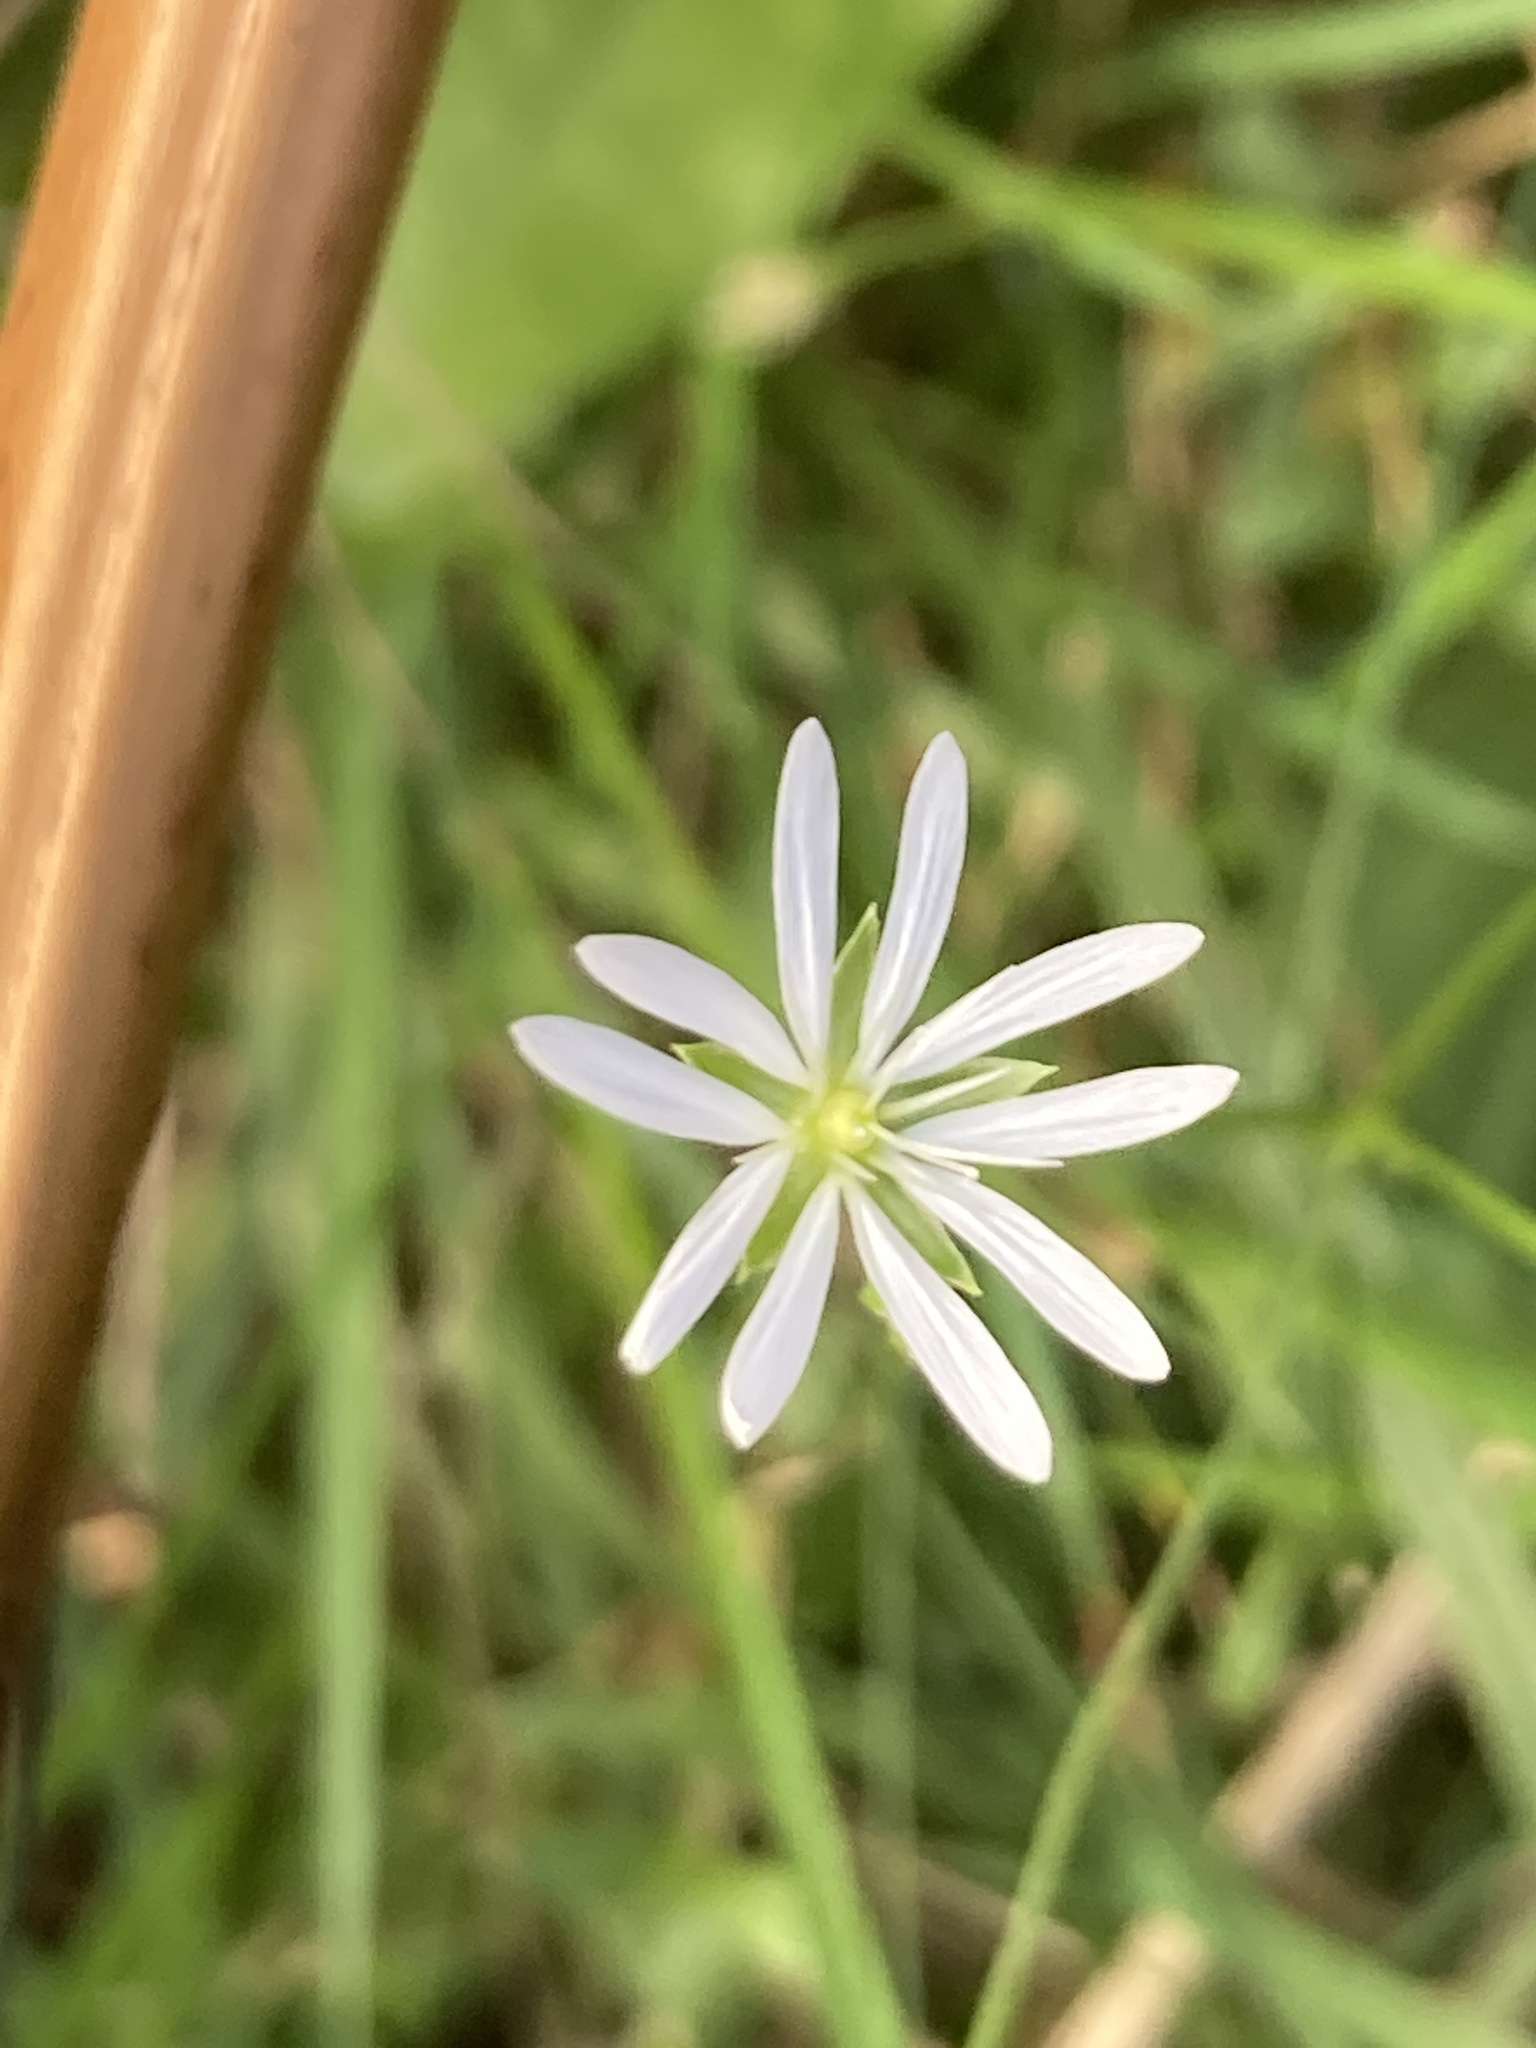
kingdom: Plantae
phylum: Tracheophyta
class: Magnoliopsida
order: Caryophyllales
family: Caryophyllaceae
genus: Stellaria
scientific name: Stellaria graminea
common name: Grass-like starwort
